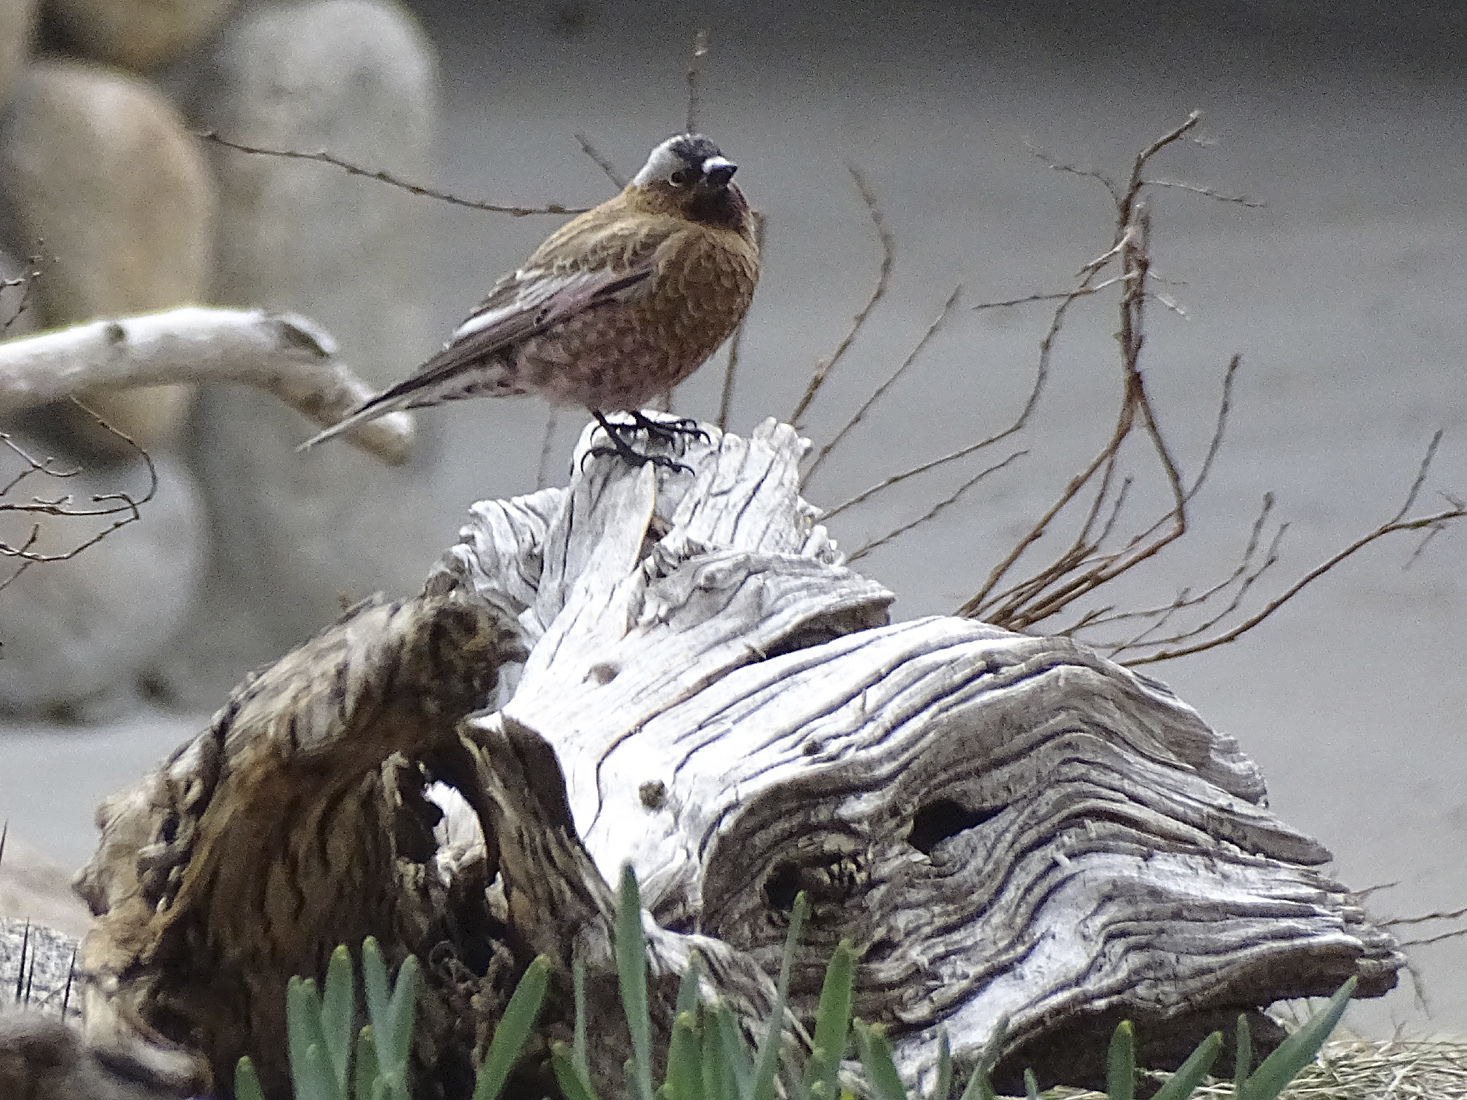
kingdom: Animalia
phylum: Chordata
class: Aves
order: Passeriformes
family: Fringillidae
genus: Leucosticte
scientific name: Leucosticte tephrocotis
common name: Gray-crowned rosy-finch
